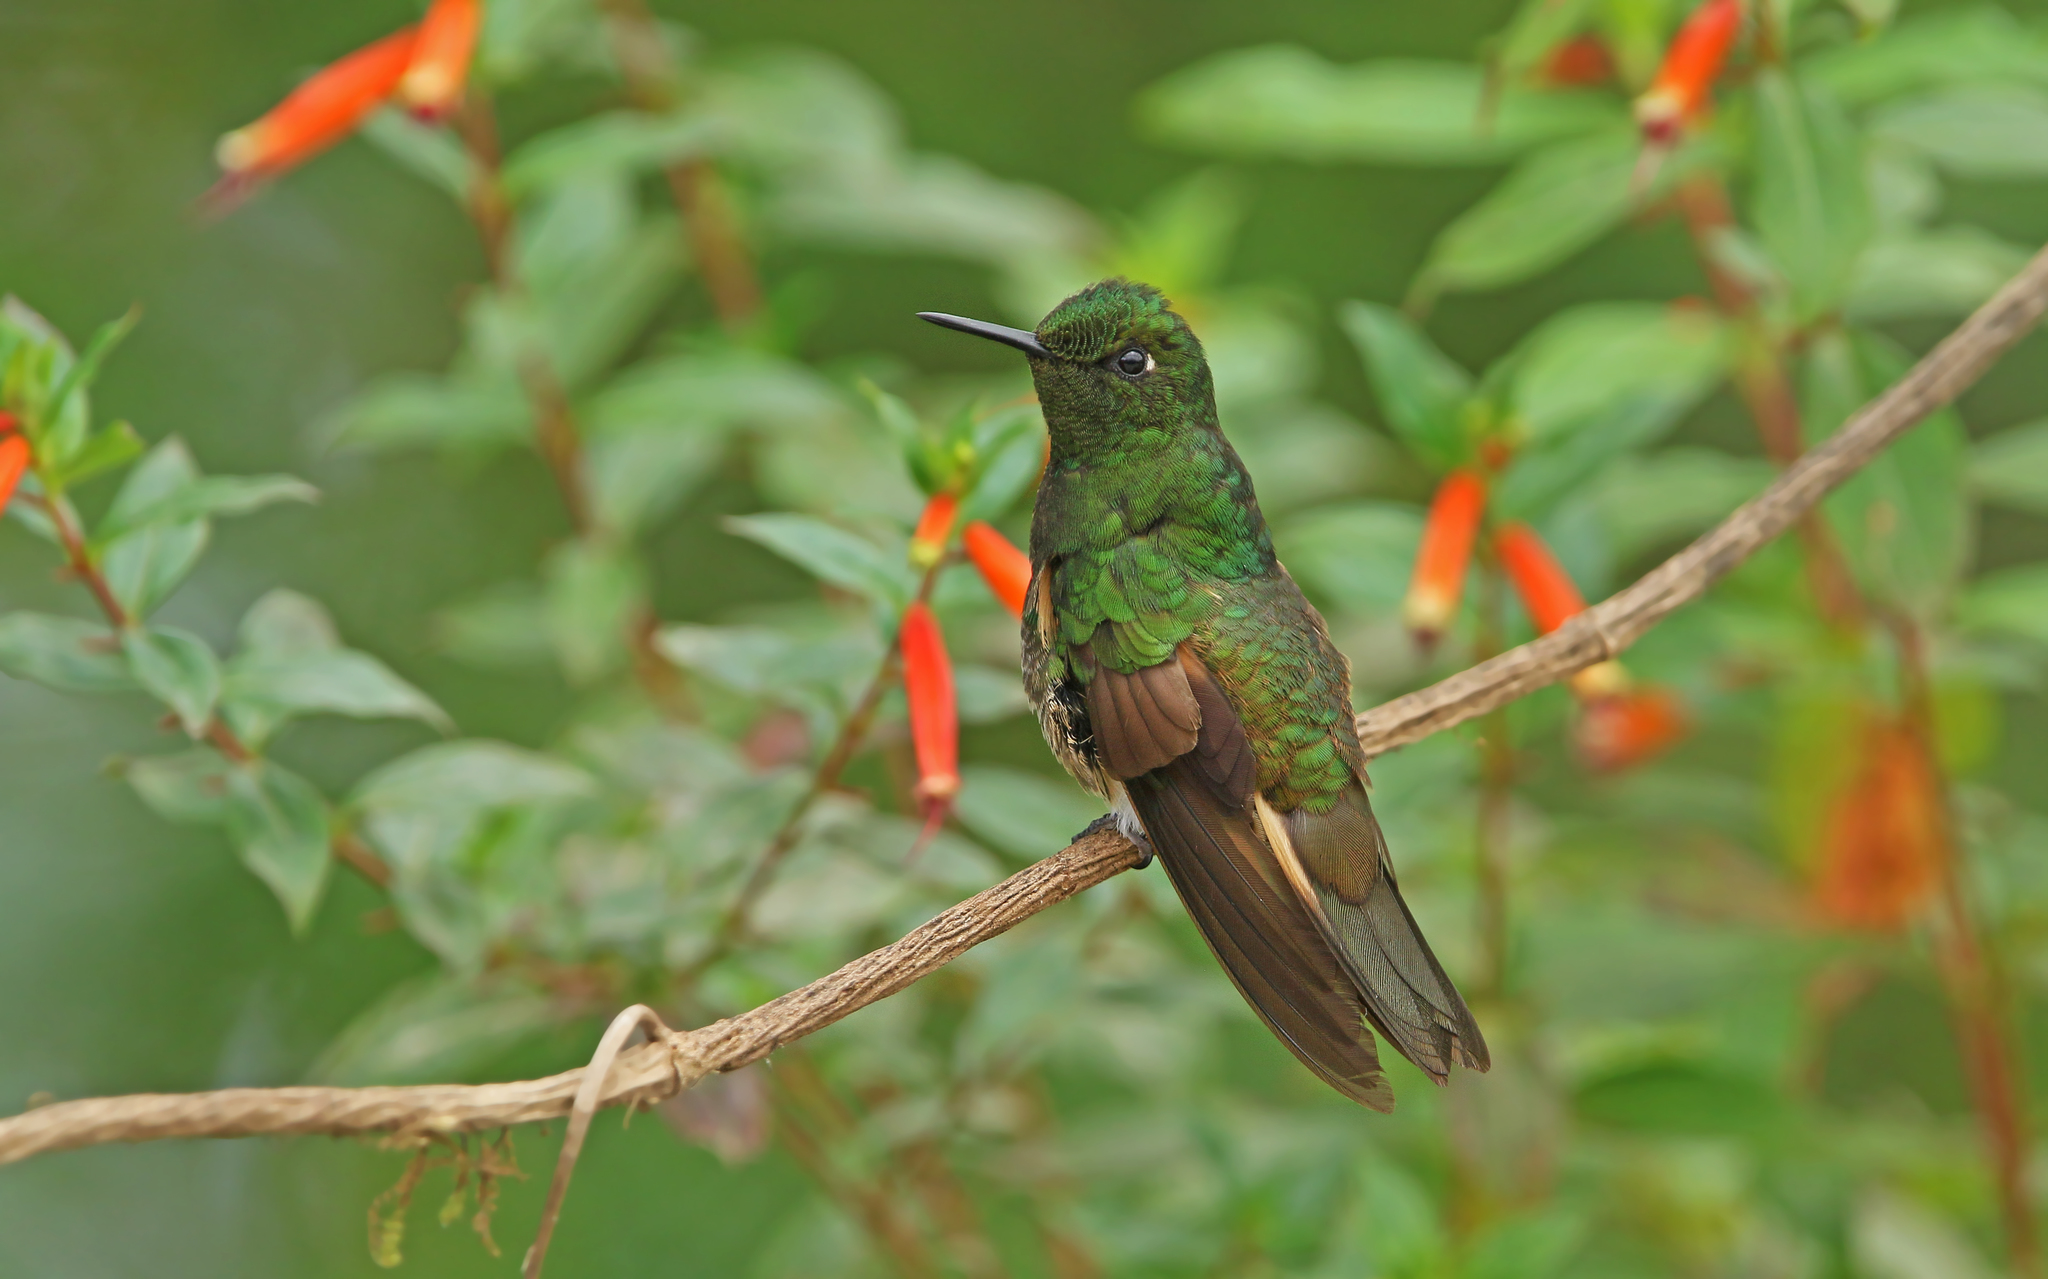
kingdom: Animalia
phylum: Chordata
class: Aves
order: Apodiformes
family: Trochilidae
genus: Boissonneaua
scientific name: Boissonneaua flavescens
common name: Buff-tailed coronet
